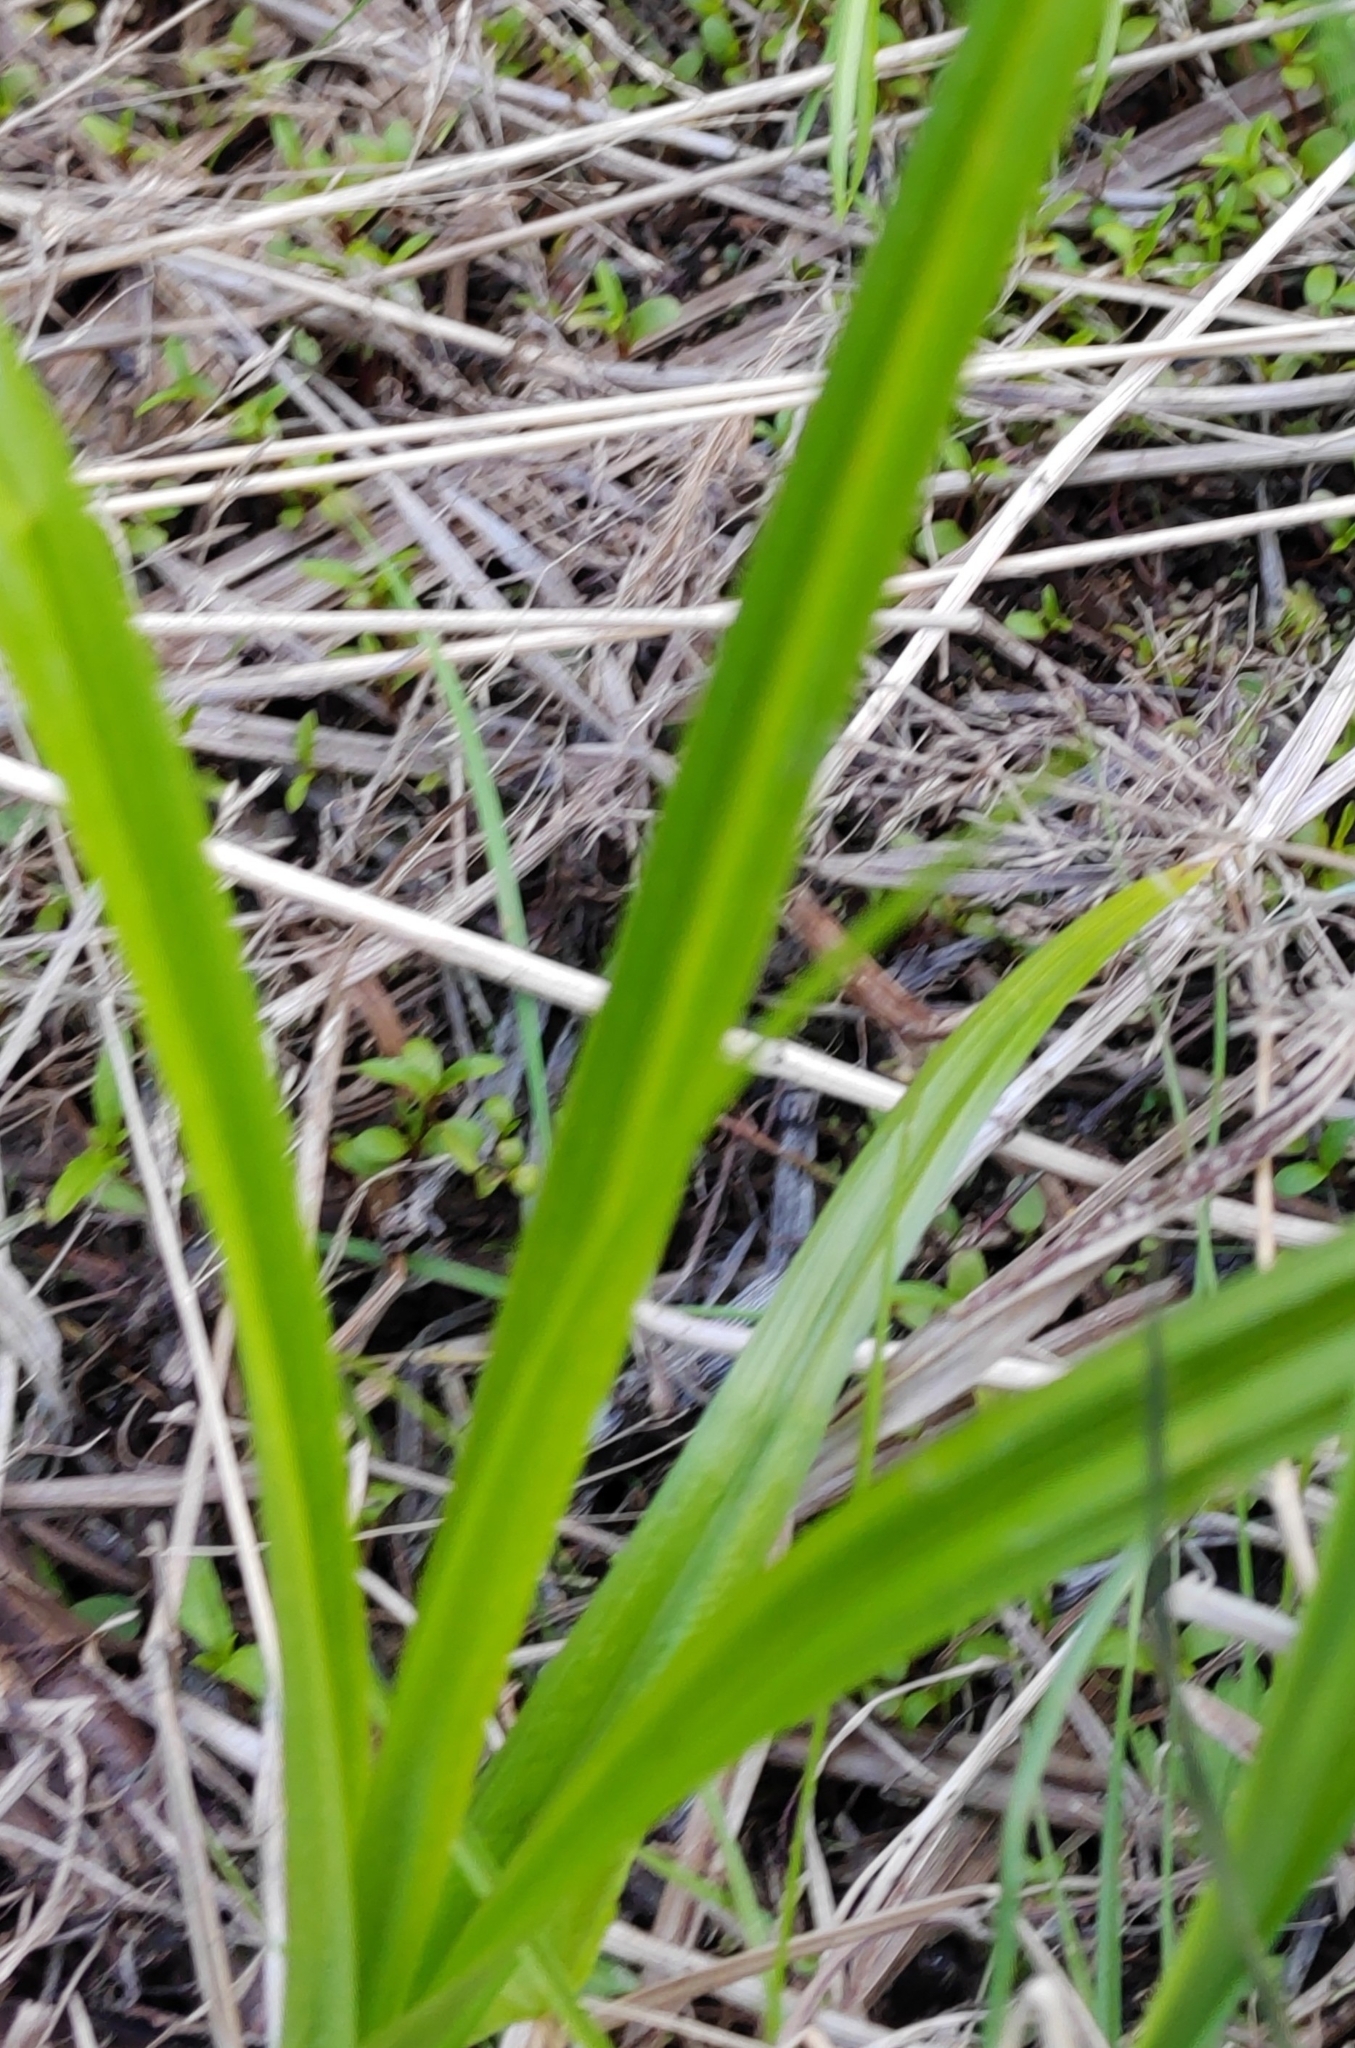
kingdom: Plantae
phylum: Tracheophyta
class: Liliopsida
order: Poales
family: Cyperaceae
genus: Scirpus
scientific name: Scirpus sylvaticus
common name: Wood club-rush
